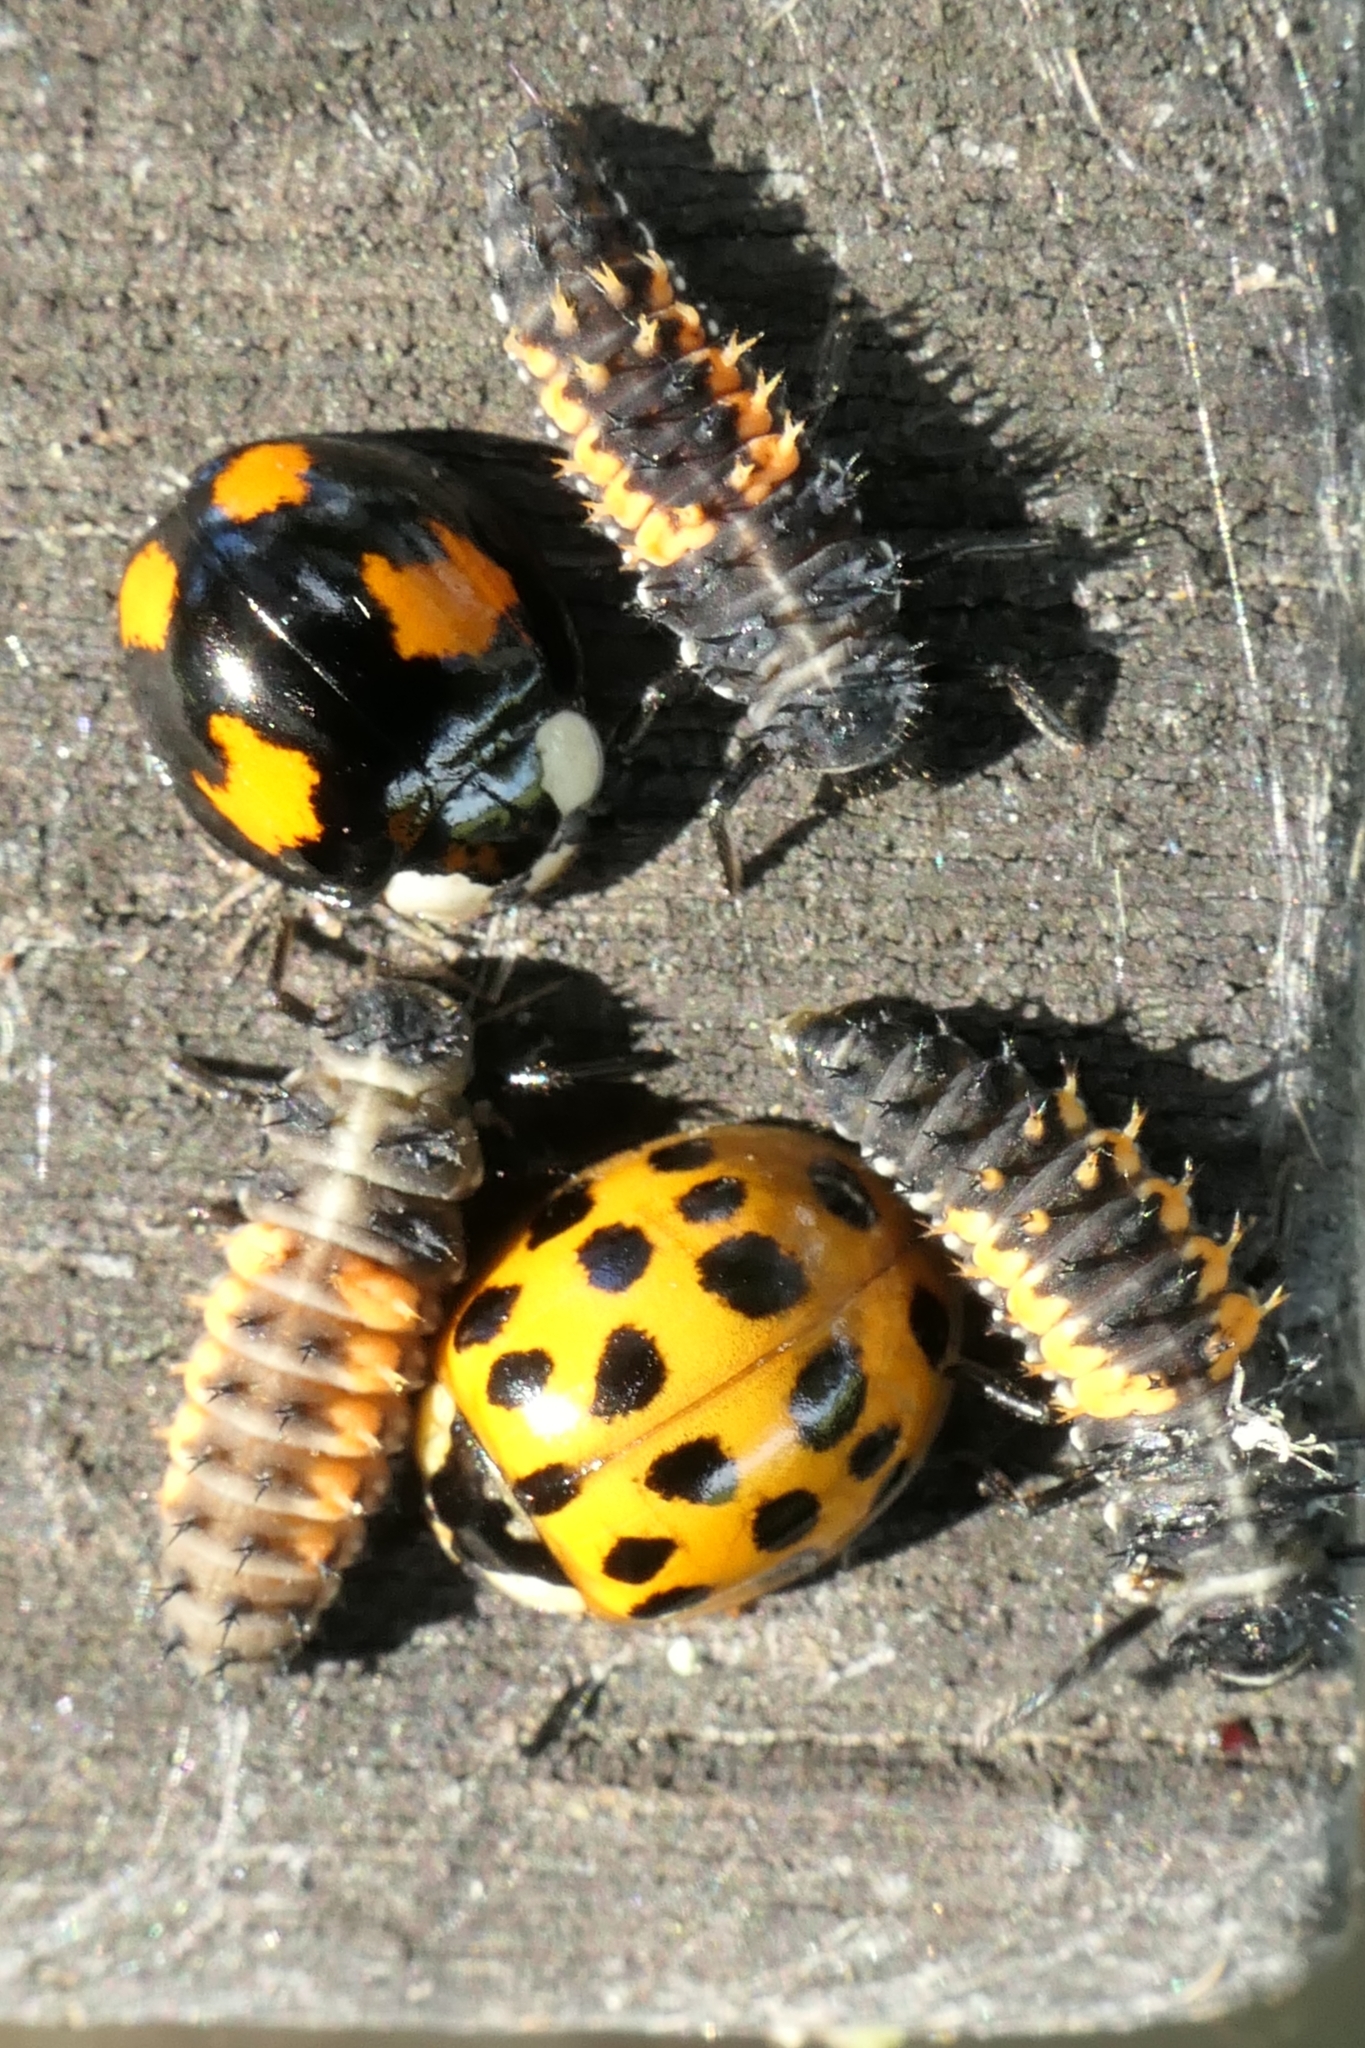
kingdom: Animalia
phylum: Arthropoda
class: Insecta
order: Coleoptera
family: Coccinellidae
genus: Harmonia
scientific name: Harmonia axyridis
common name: Harlequin ladybird
